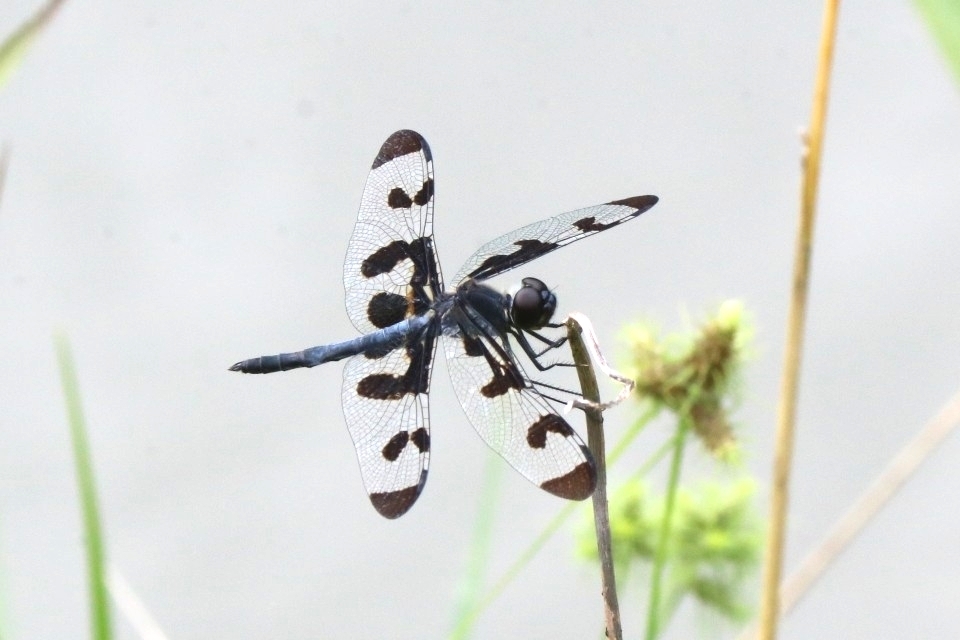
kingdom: Animalia
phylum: Arthropoda
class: Insecta
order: Odonata
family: Libellulidae
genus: Celithemis
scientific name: Celithemis fasciata
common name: Banded pennant
